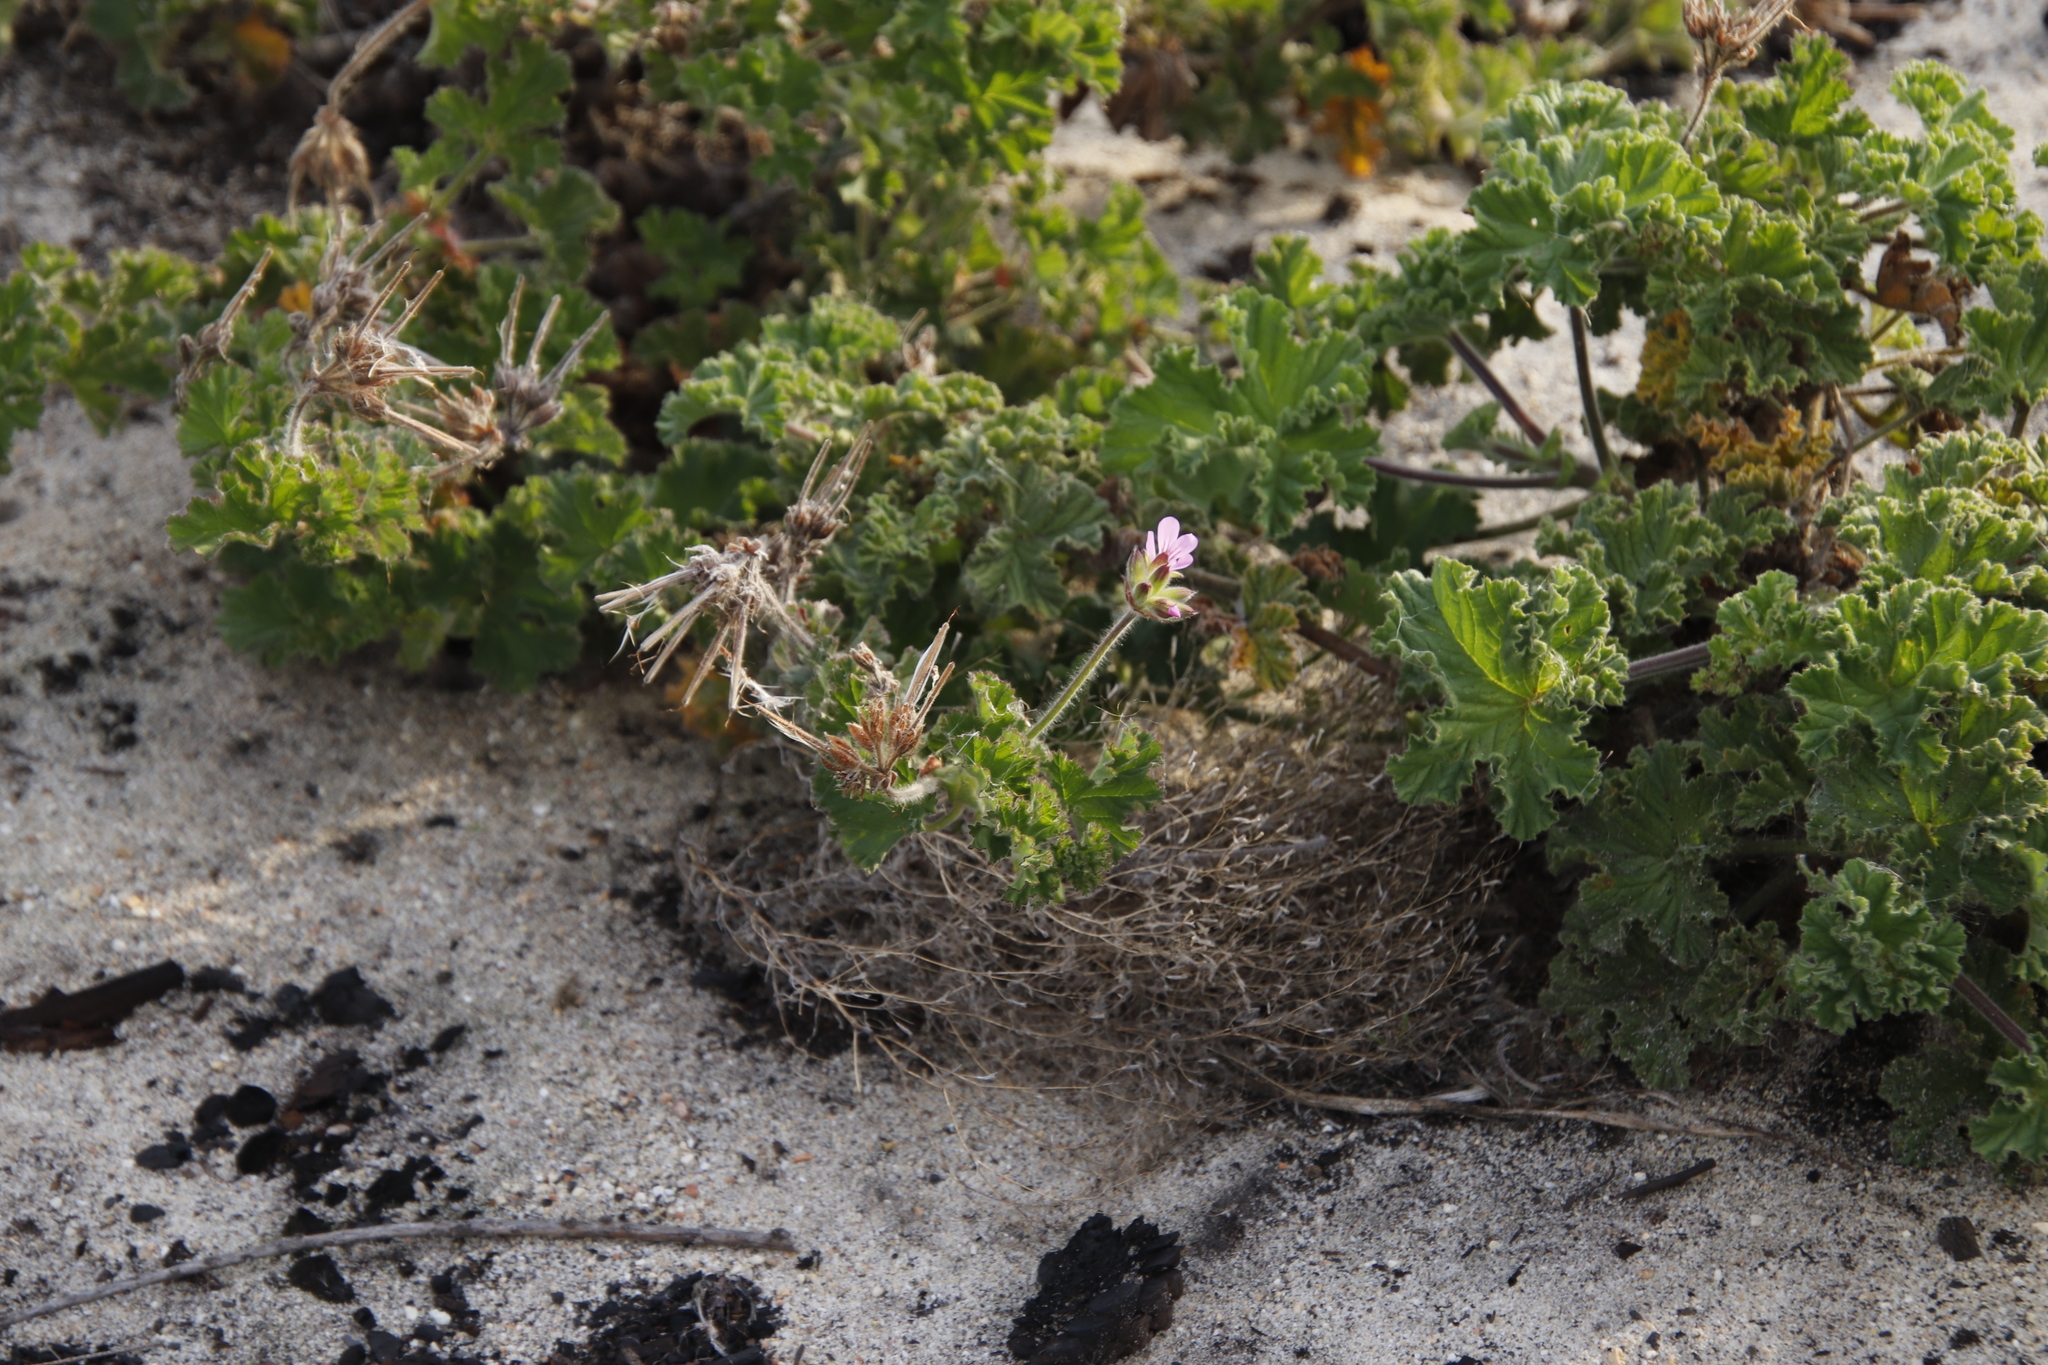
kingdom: Plantae
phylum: Tracheophyta
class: Magnoliopsida
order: Geraniales
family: Geraniaceae
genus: Pelargonium
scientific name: Pelargonium capitatum
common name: Rose scented geranium
